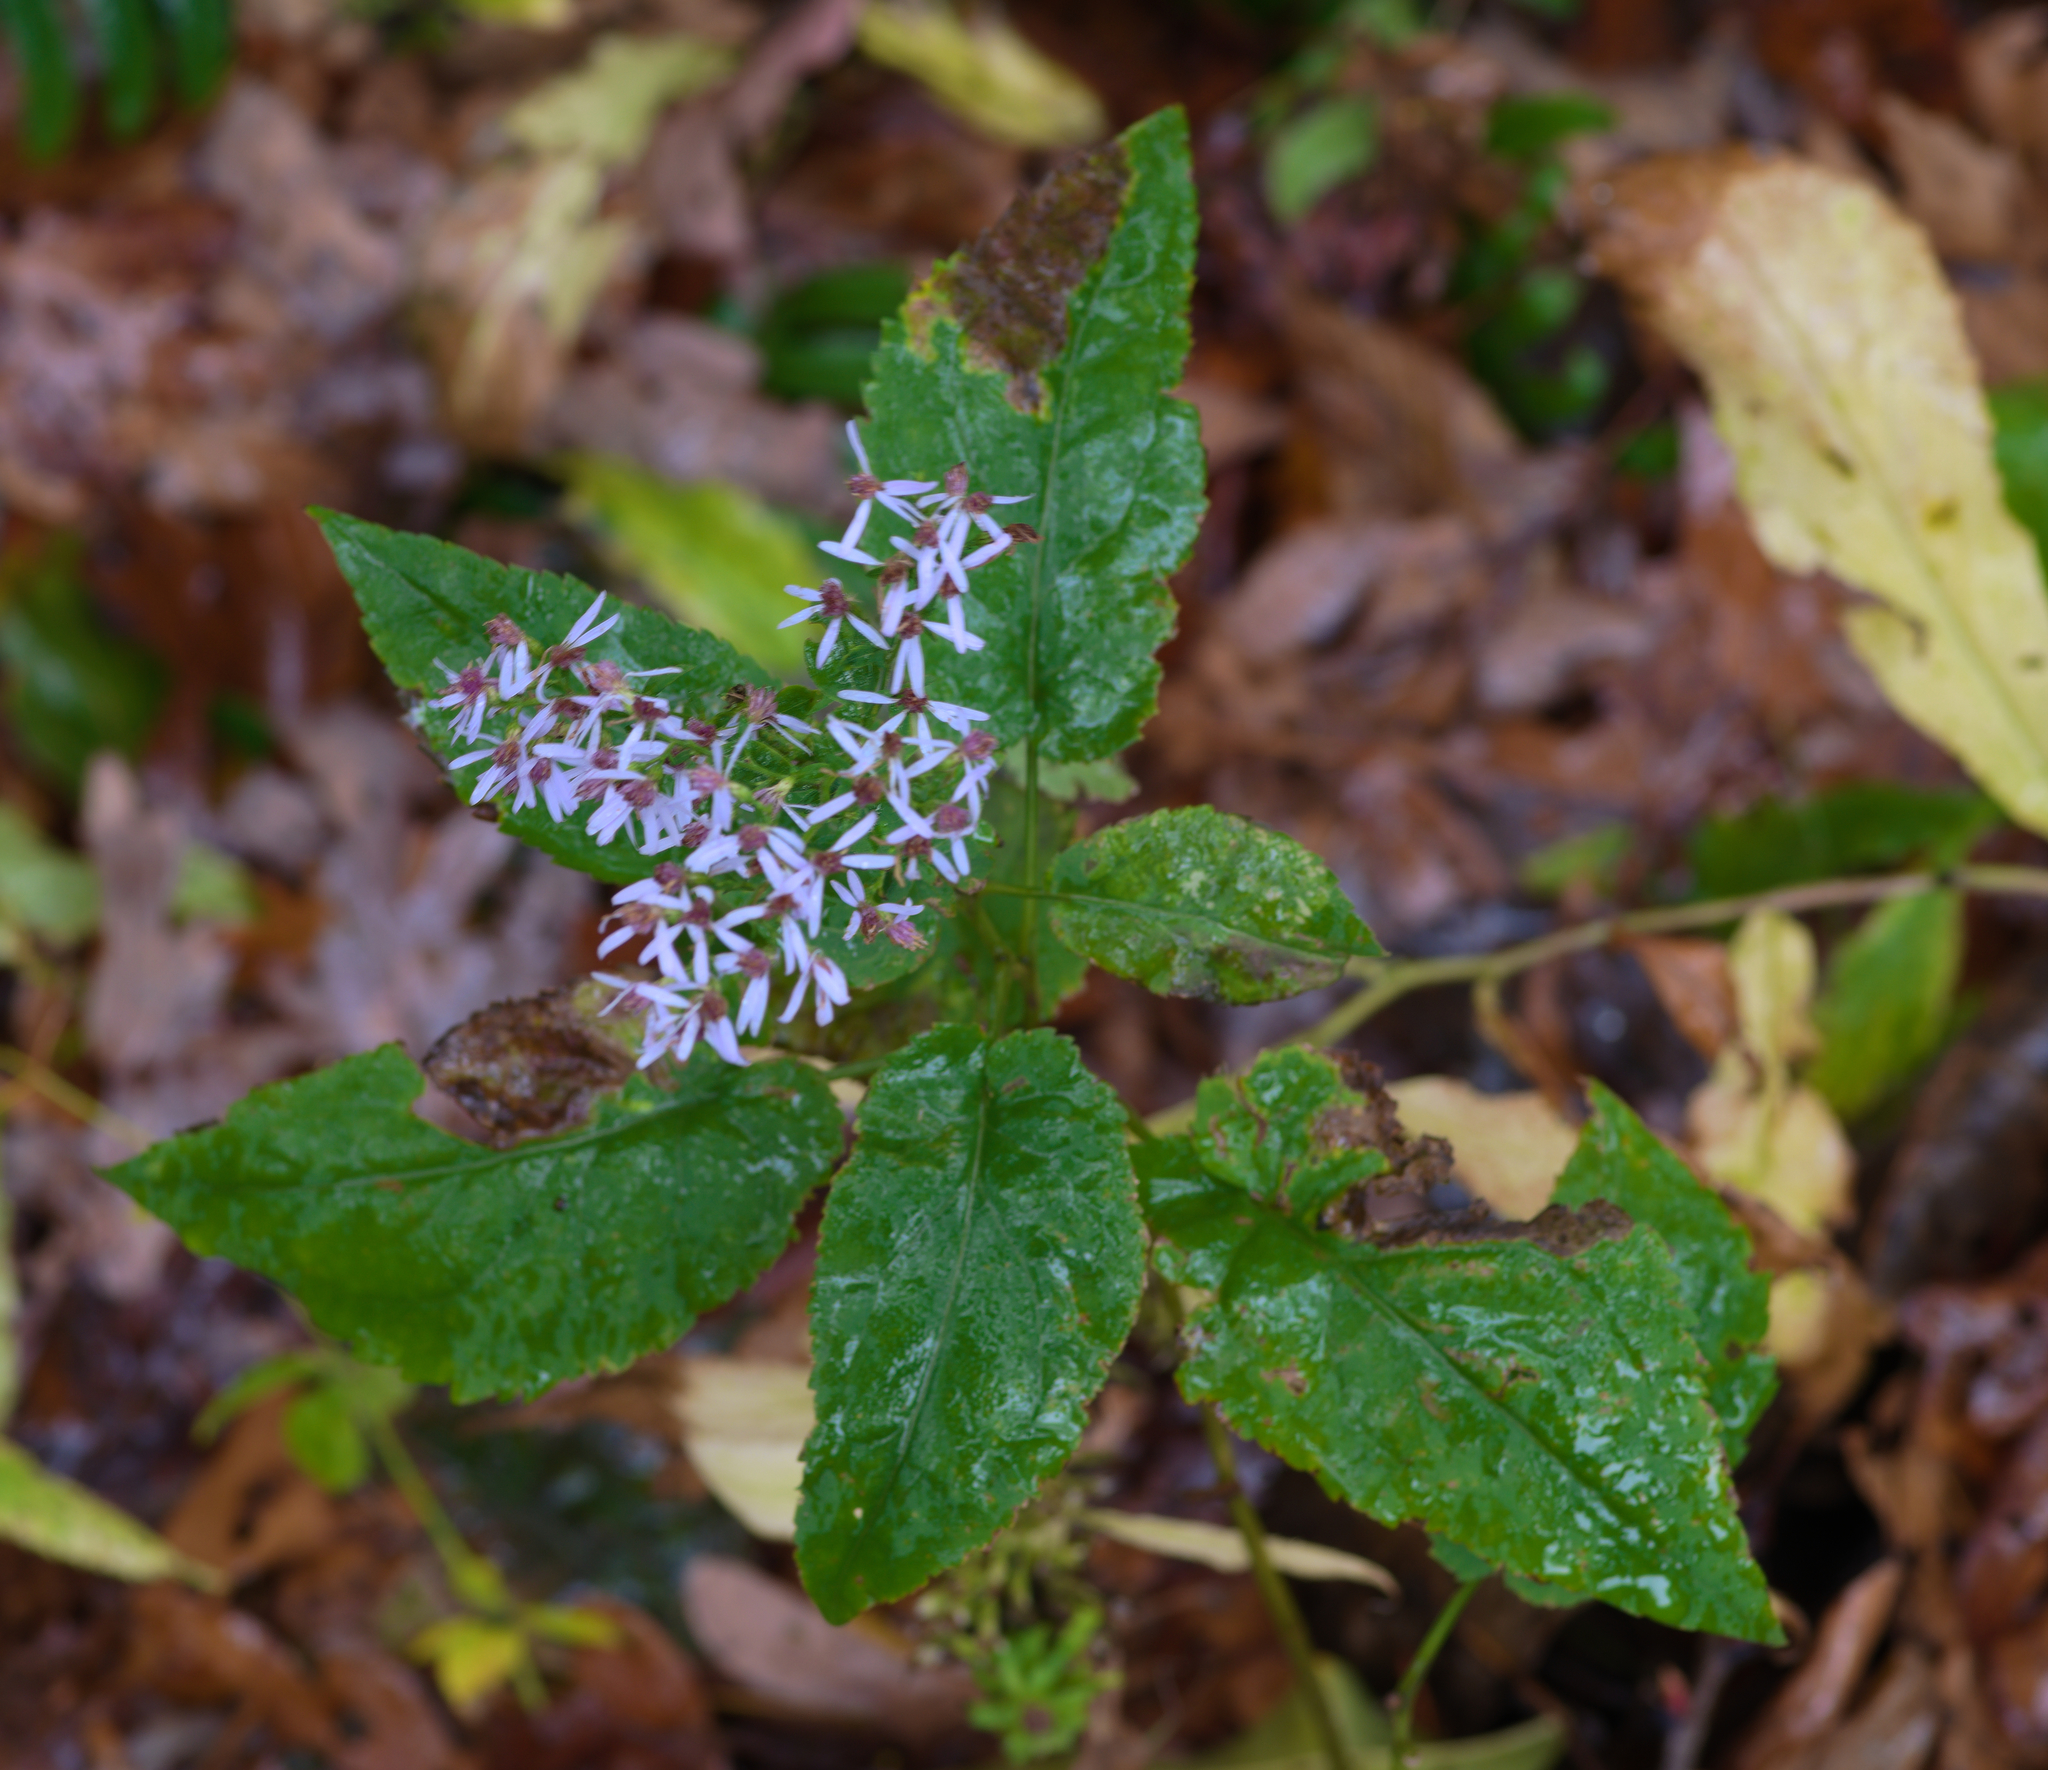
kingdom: Plantae
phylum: Tracheophyta
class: Magnoliopsida
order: Asterales
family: Asteraceae
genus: Symphyotrichum
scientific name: Symphyotrichum cordifolium
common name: Beeweed
